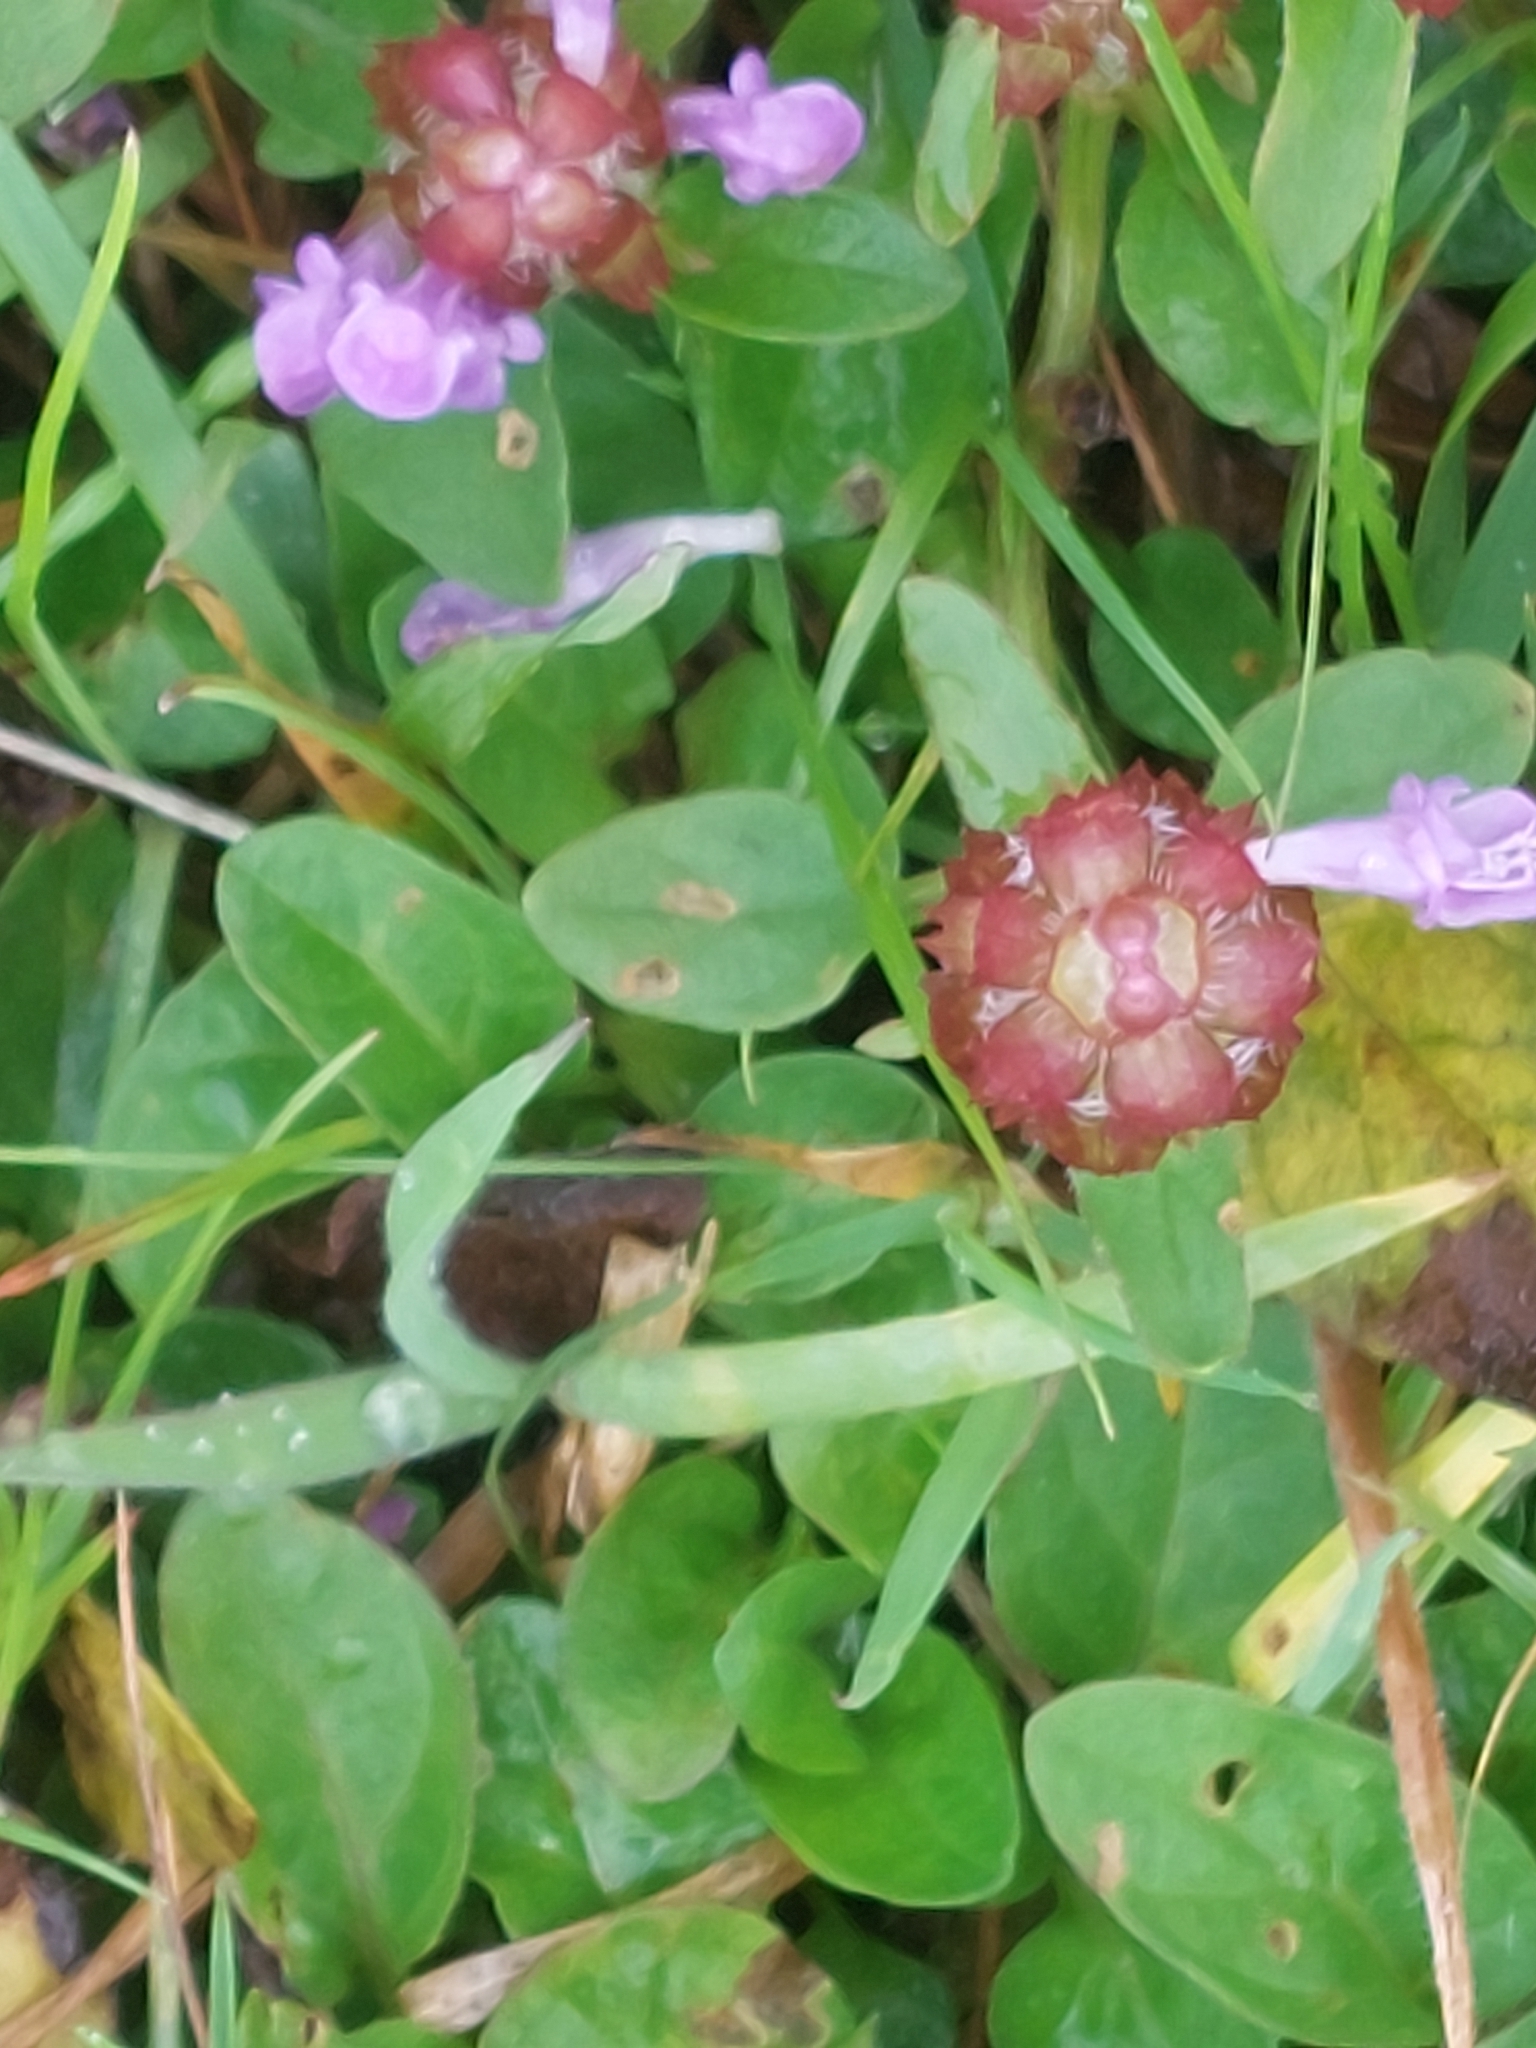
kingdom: Plantae
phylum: Tracheophyta
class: Magnoliopsida
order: Lamiales
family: Lamiaceae
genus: Prunella
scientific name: Prunella vulgaris
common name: Heal-all
